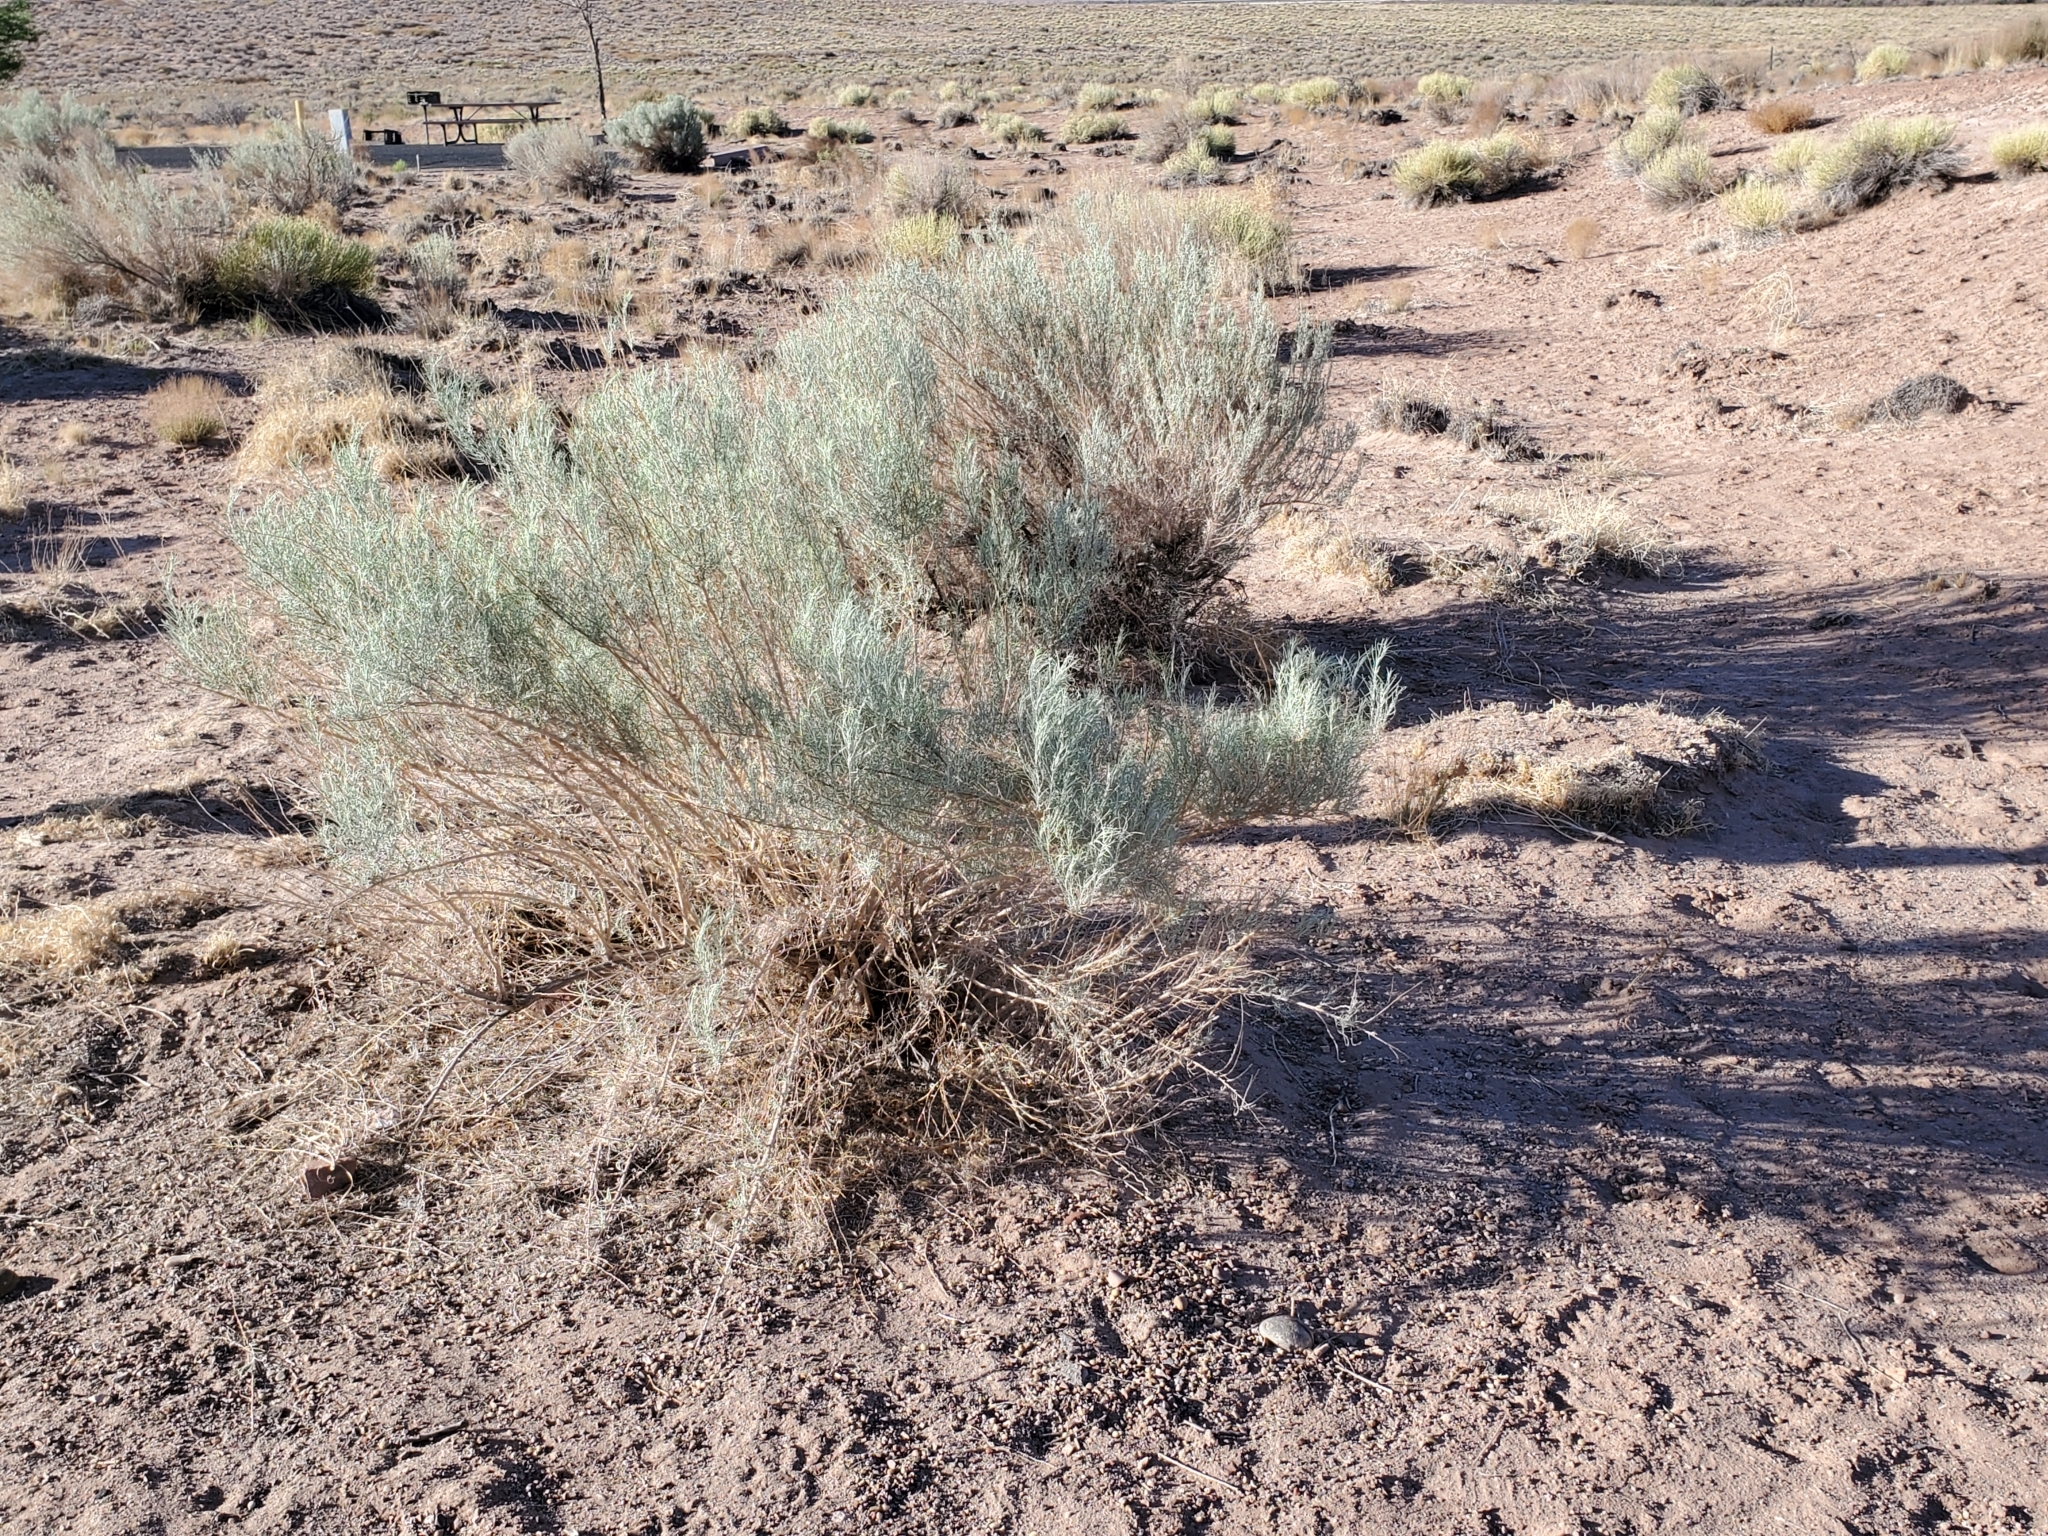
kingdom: Plantae
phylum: Tracheophyta
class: Magnoliopsida
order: Asterales
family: Asteraceae
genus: Artemisia
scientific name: Artemisia filifolia
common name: Sand-sage
